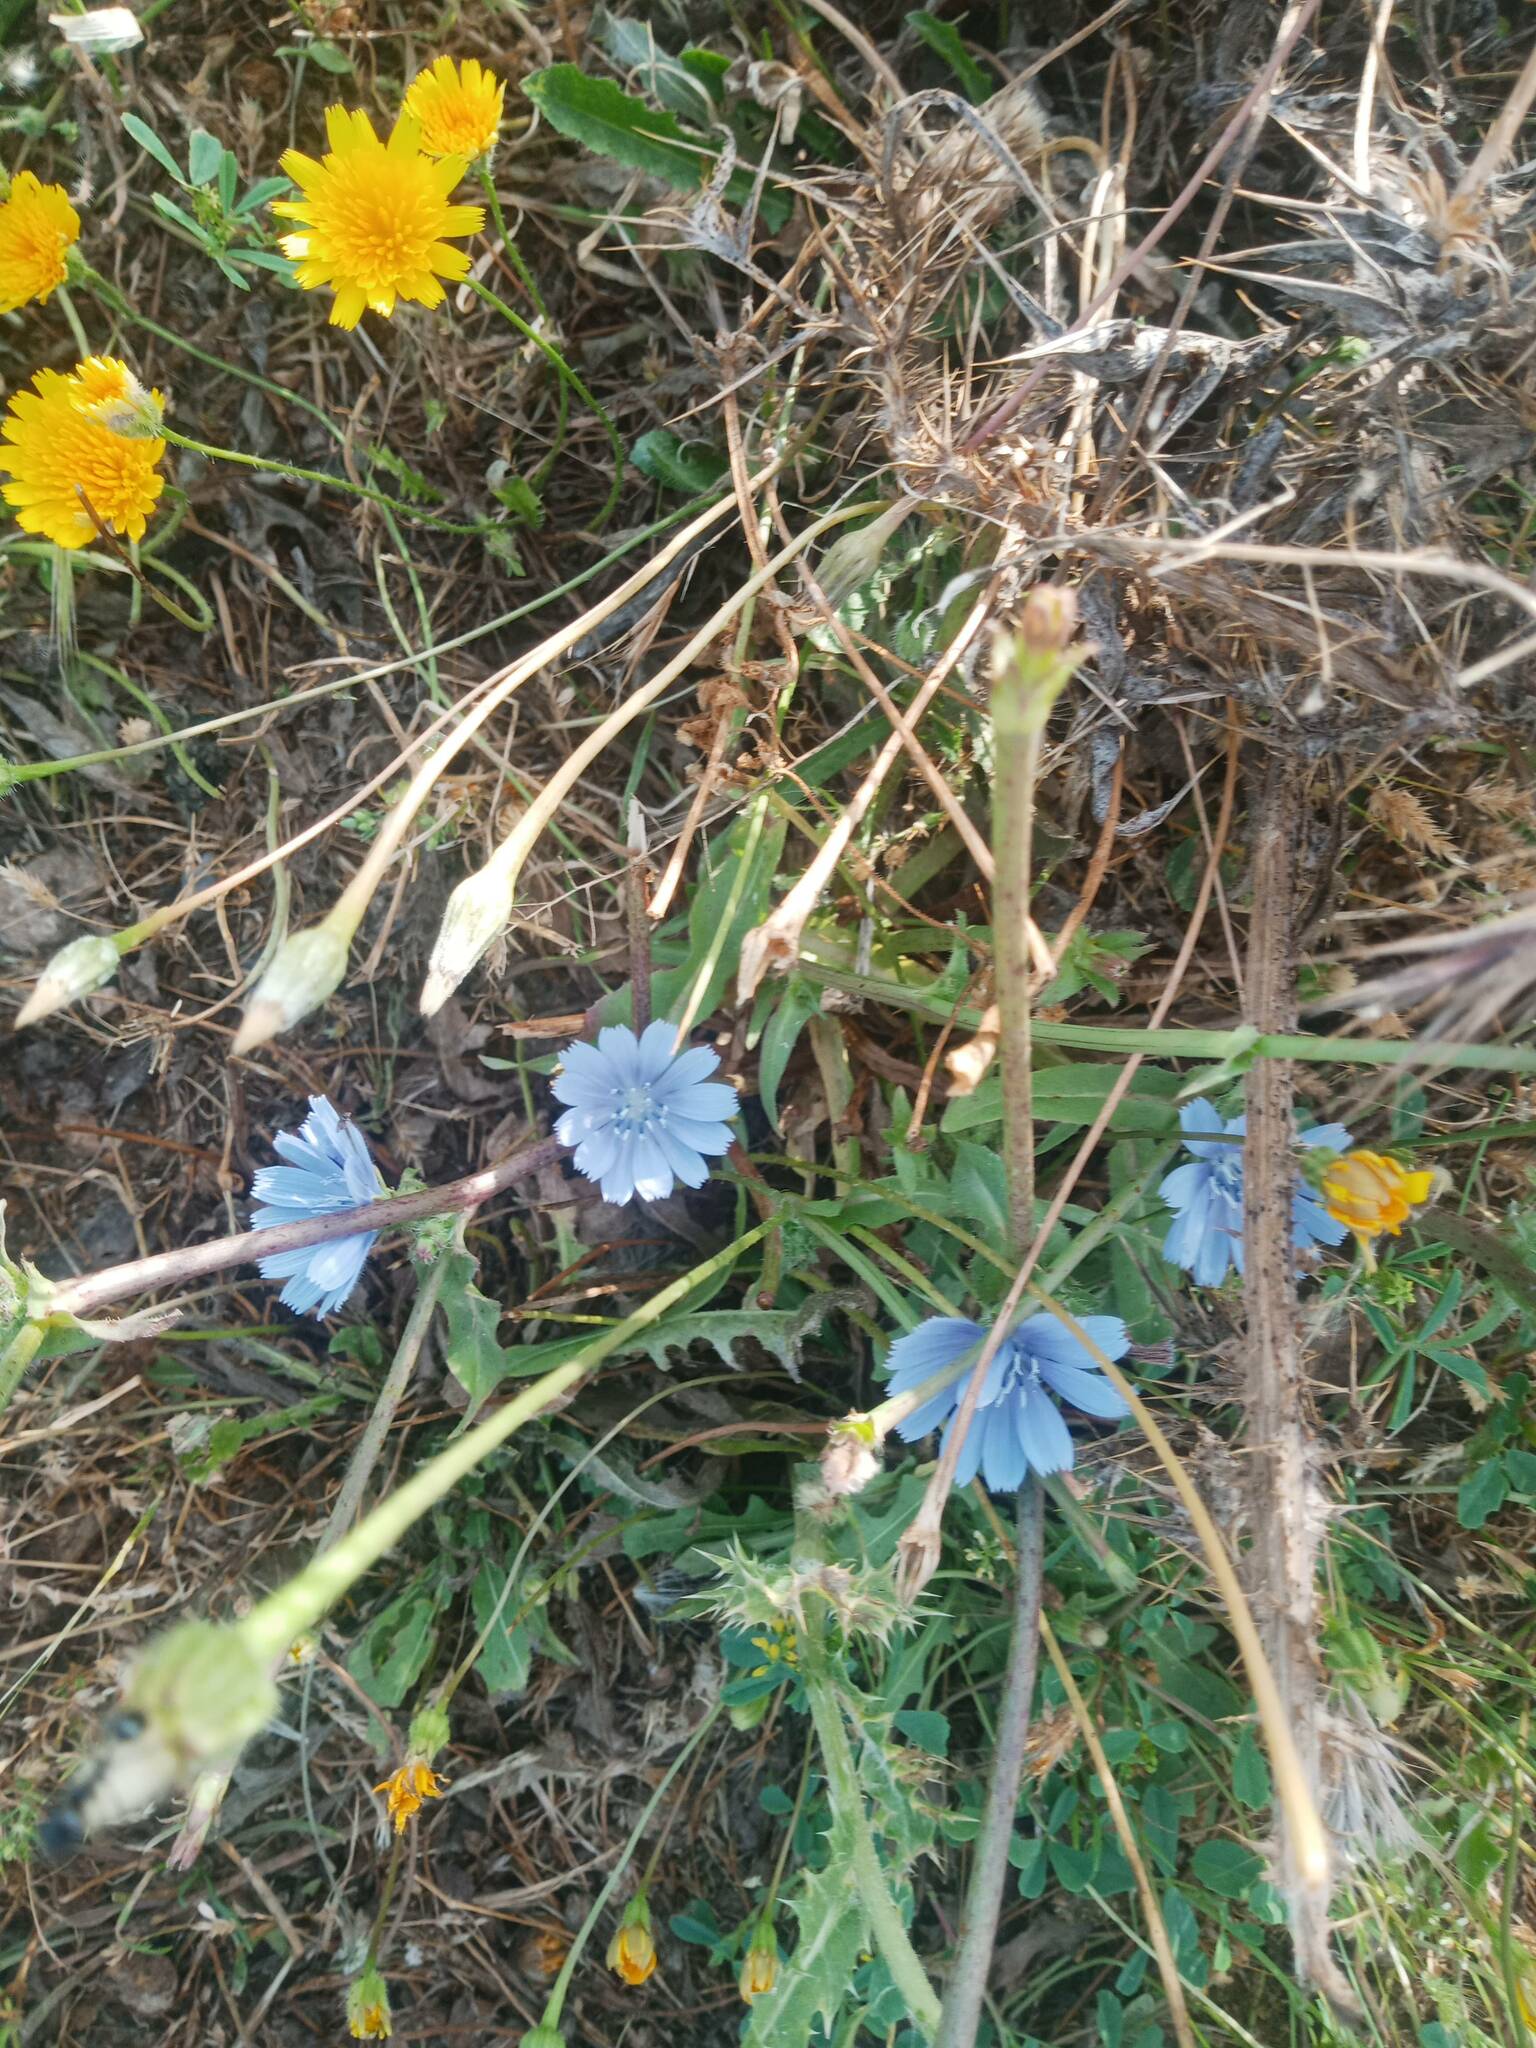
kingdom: Plantae
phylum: Tracheophyta
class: Magnoliopsida
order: Asterales
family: Asteraceae
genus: Cichorium
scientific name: Cichorium intybus
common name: Chicory
